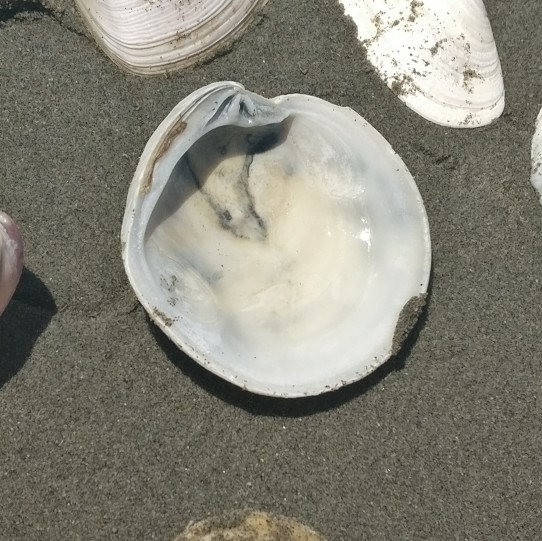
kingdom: Animalia
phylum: Mollusca
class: Bivalvia
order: Venerida
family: Veneridae
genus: Dosinia
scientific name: Dosinia anus
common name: Old-woman dosinia
